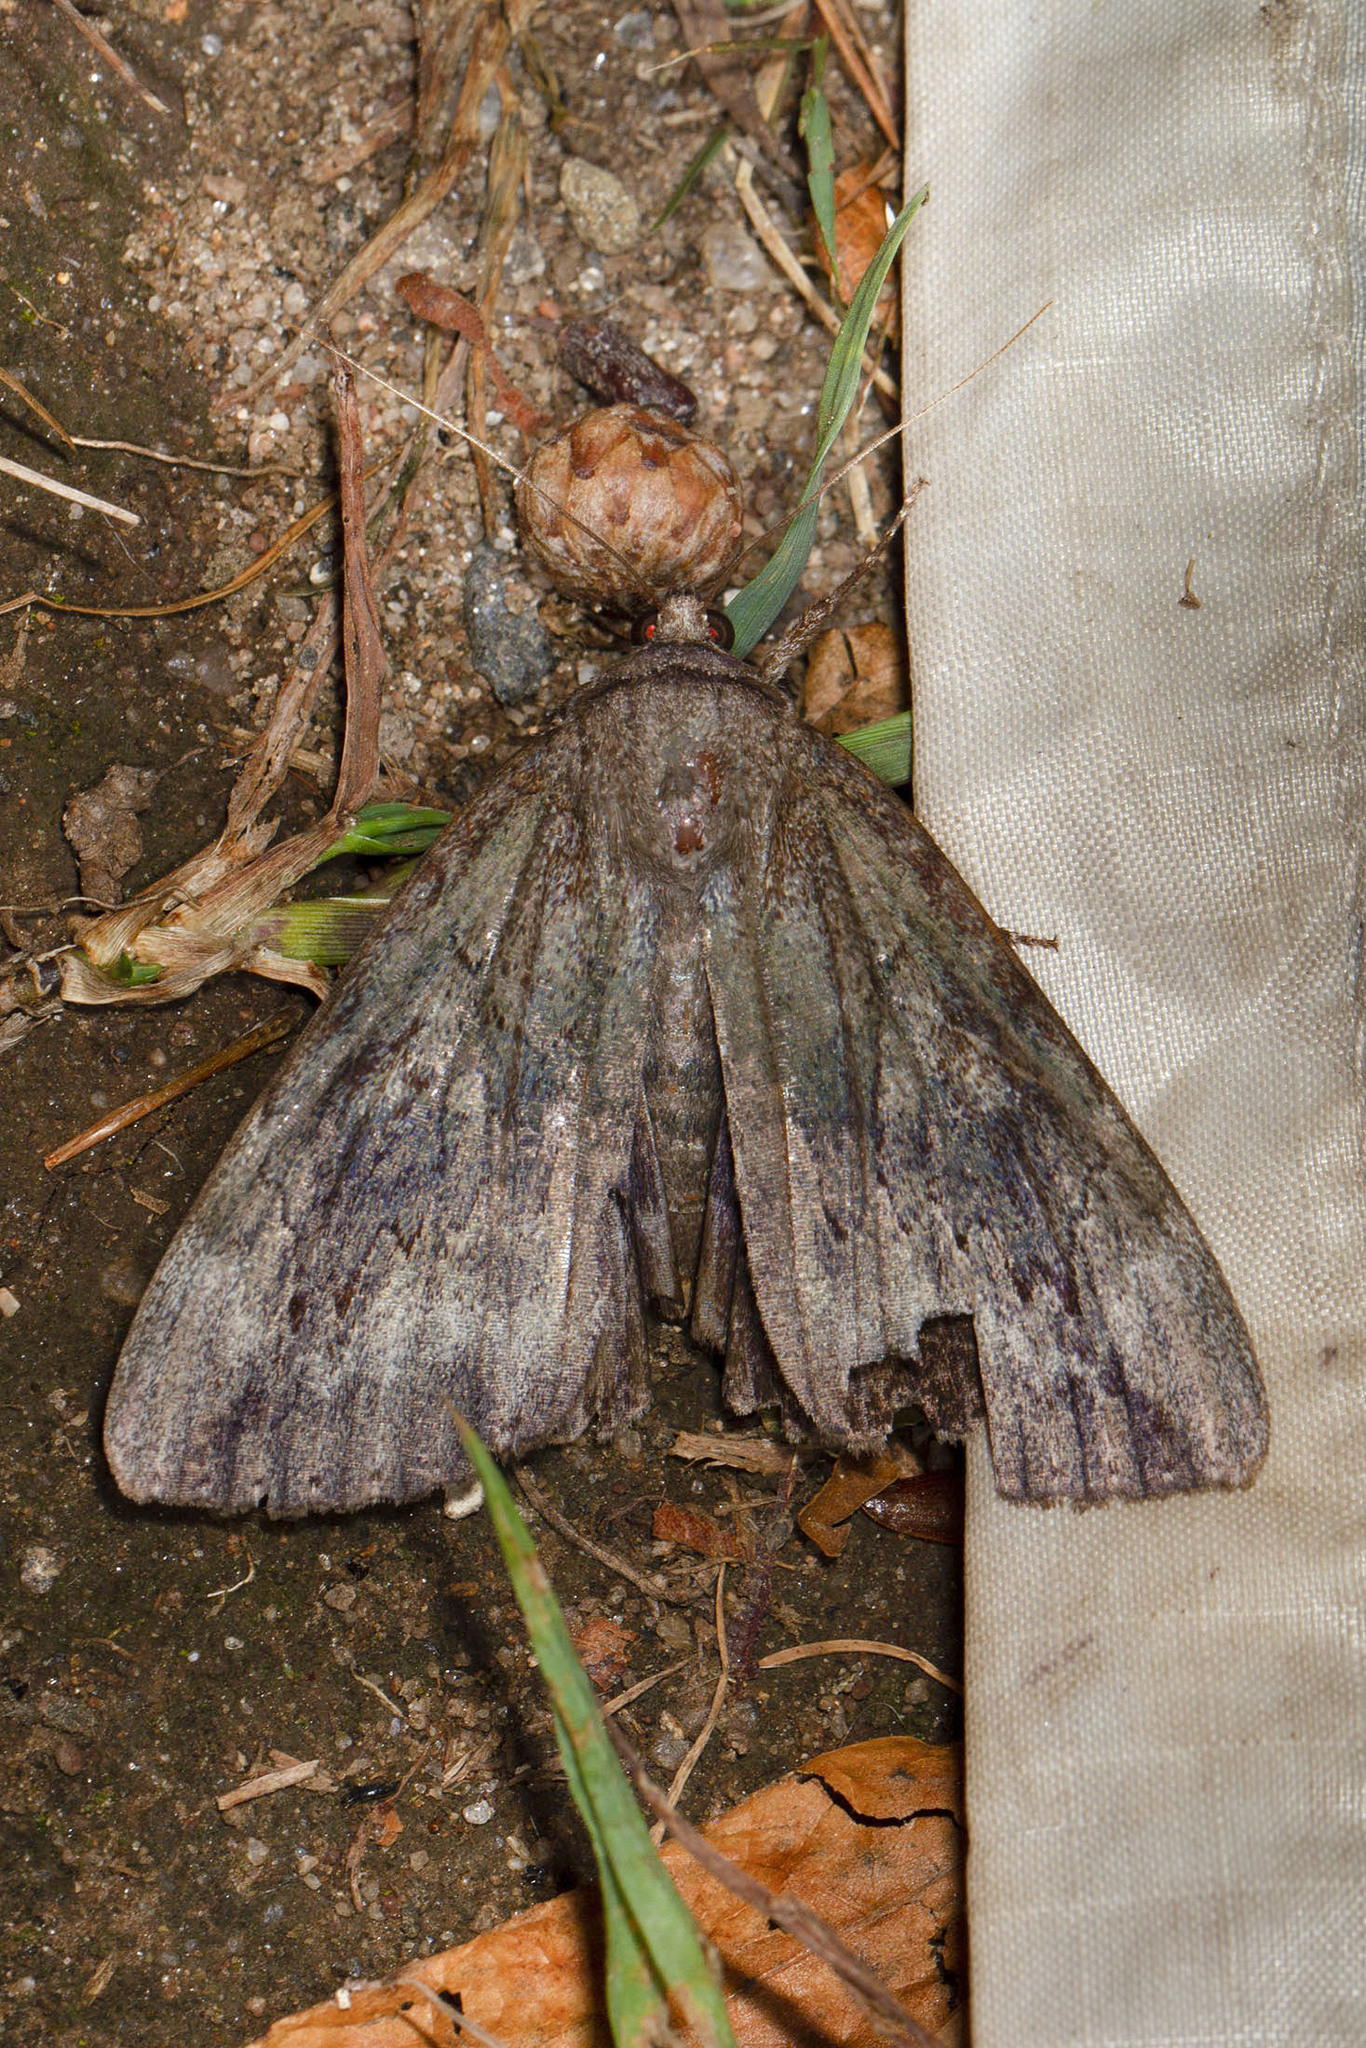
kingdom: Animalia
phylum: Arthropoda
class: Insecta
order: Lepidoptera
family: Erebidae
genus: Catocala
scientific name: Catocala residua
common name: Residua underwing
